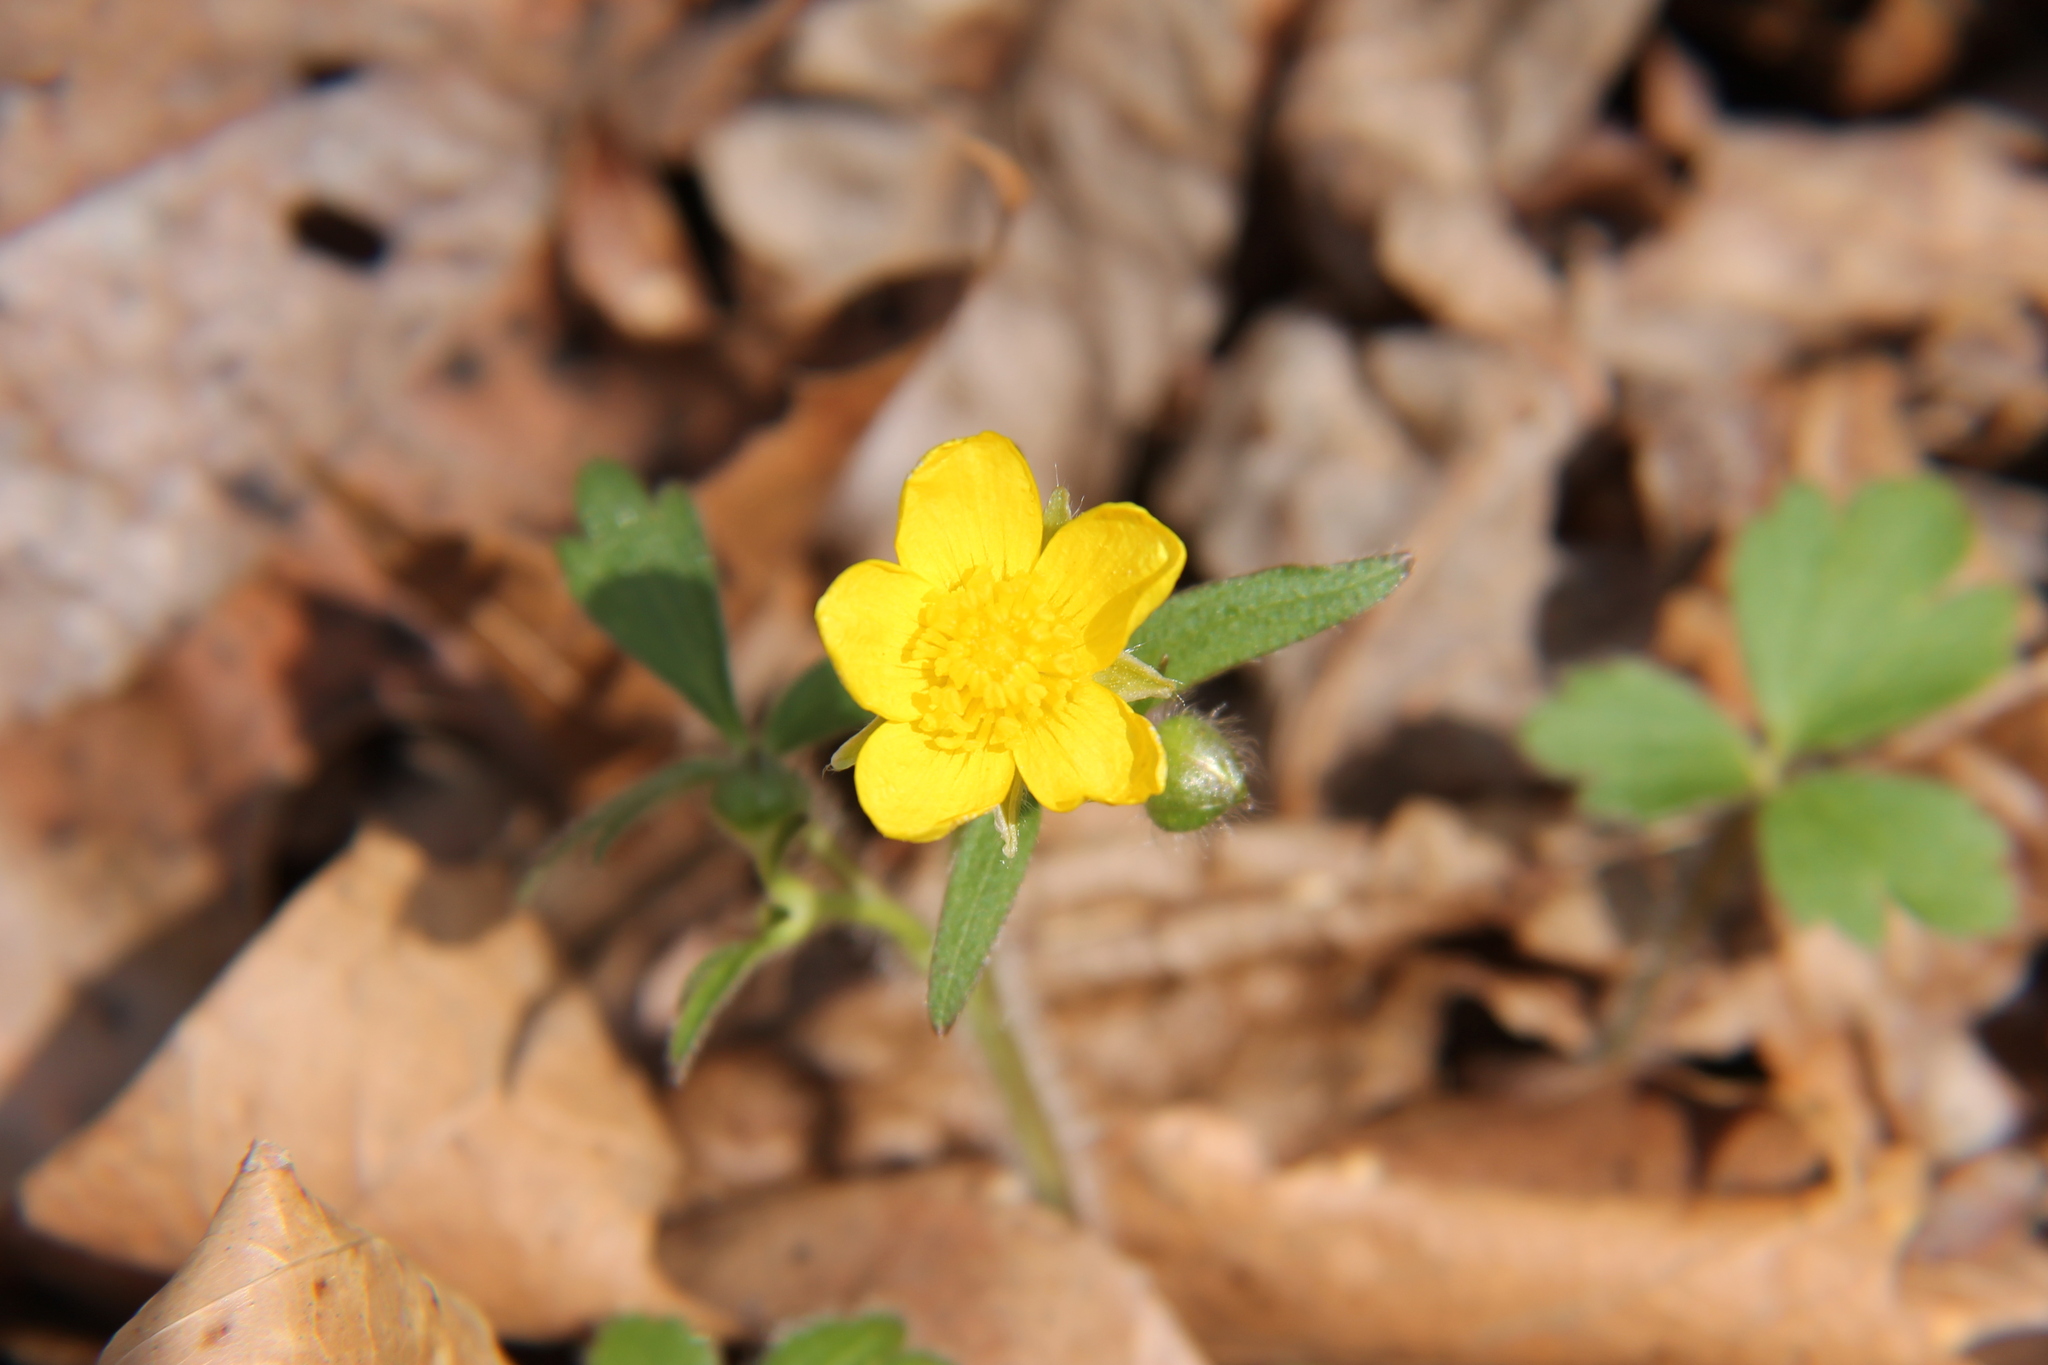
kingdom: Plantae
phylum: Tracheophyta
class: Magnoliopsida
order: Ranunculales
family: Ranunculaceae
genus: Ranunculus
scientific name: Ranunculus hispidus
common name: Bristly buttercup
